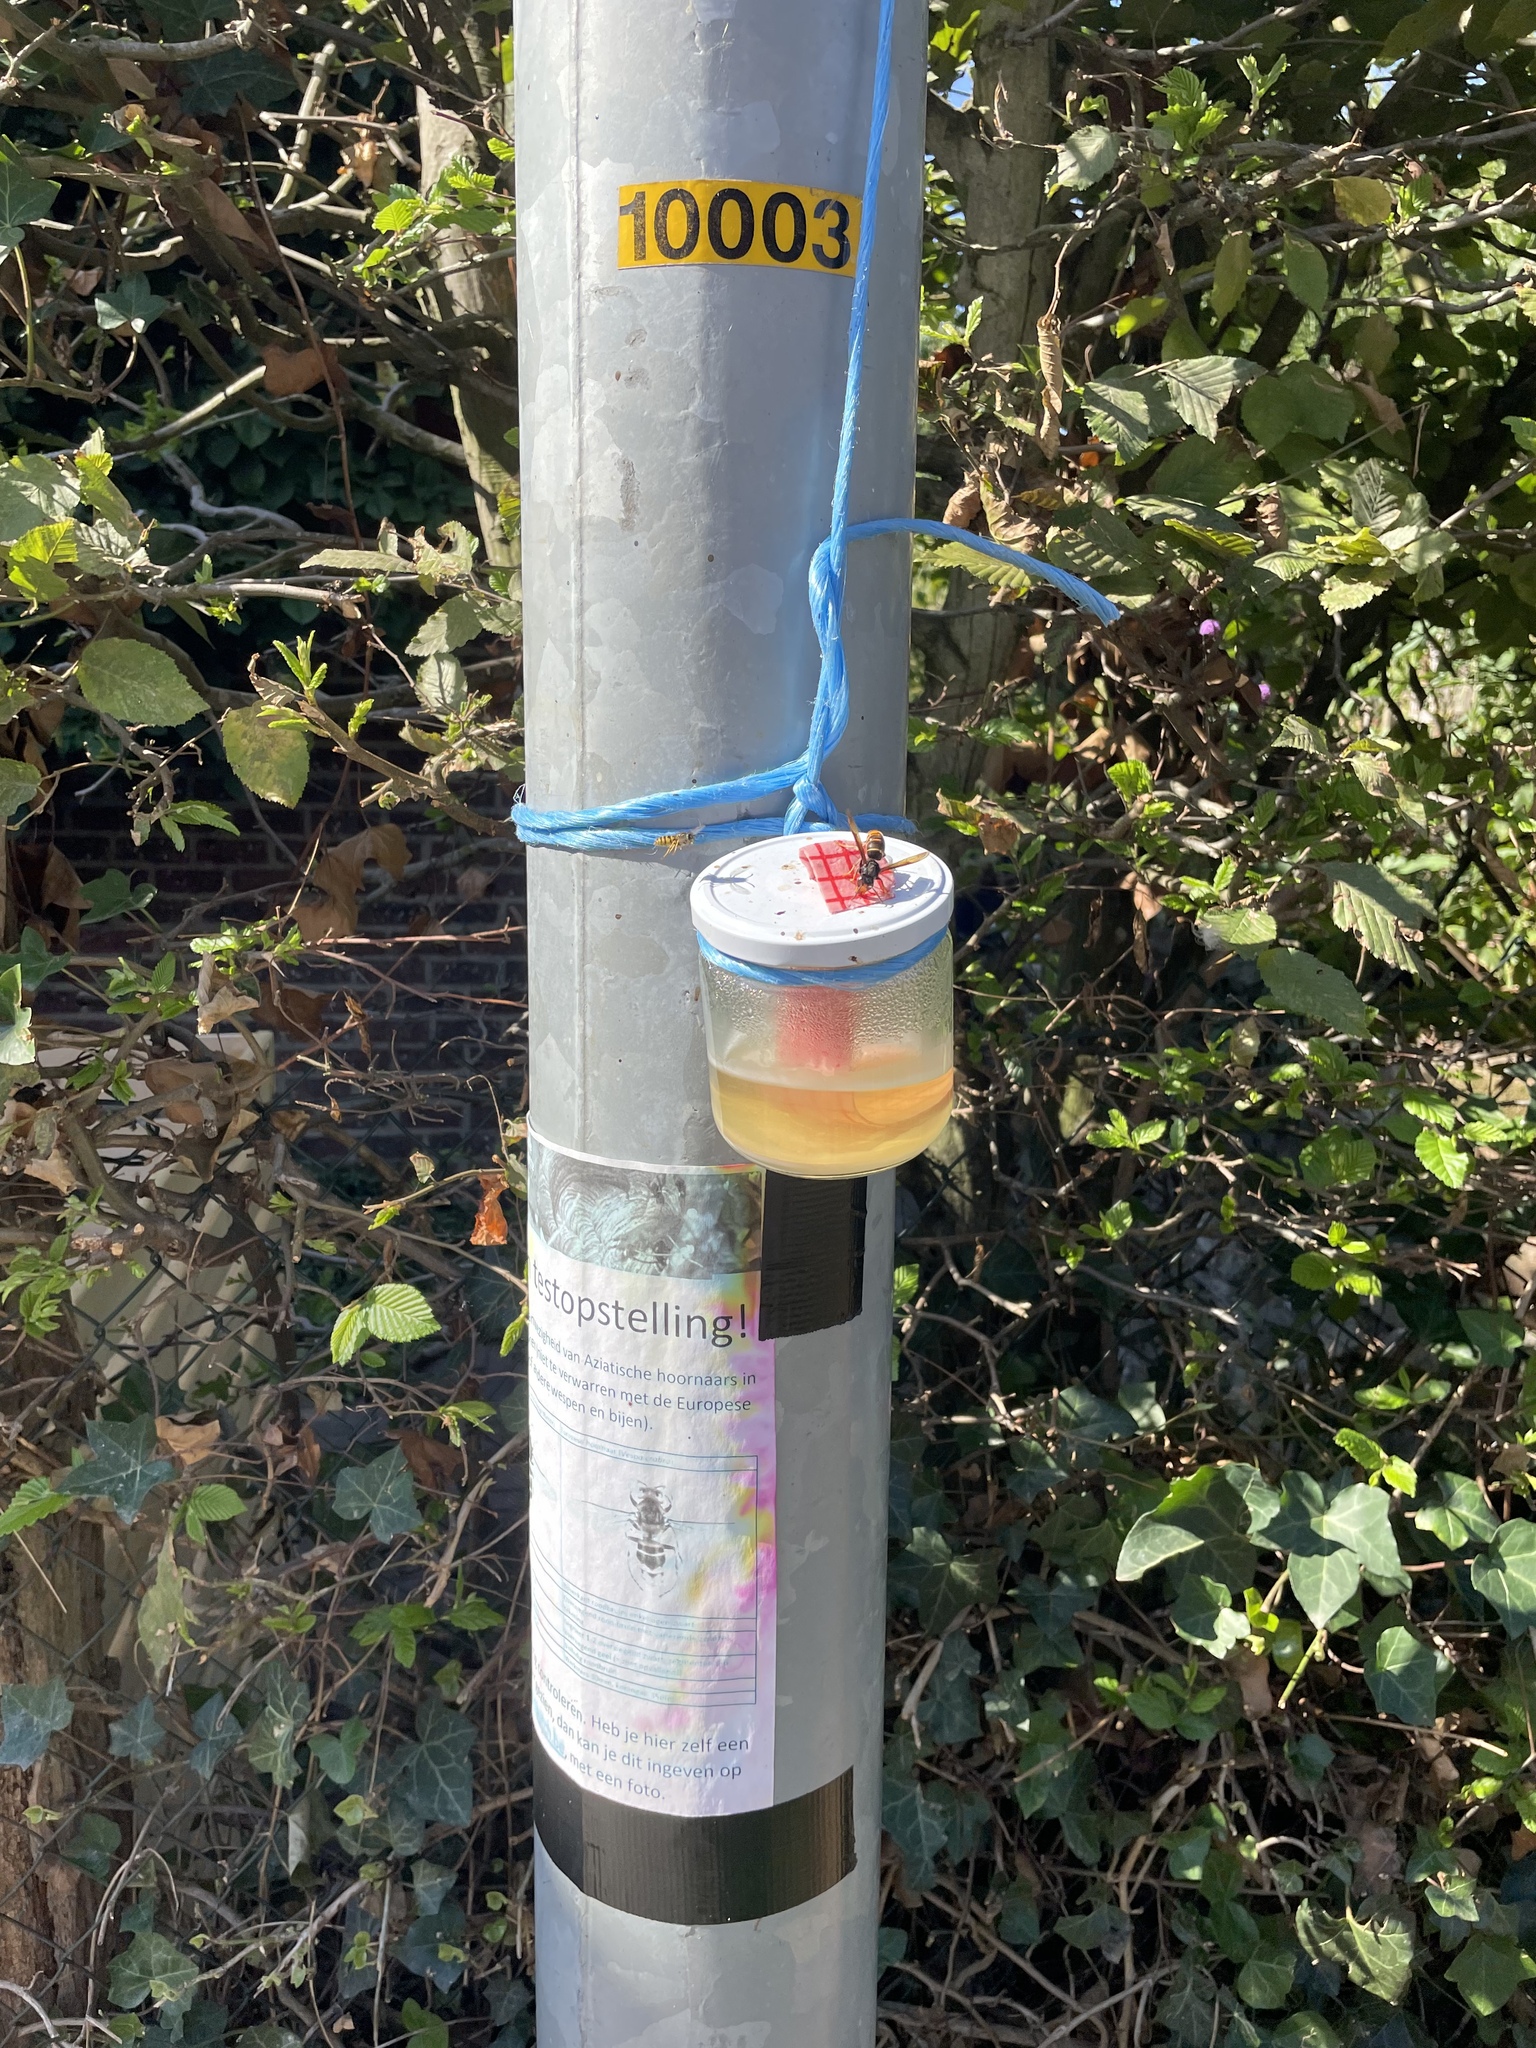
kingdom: Animalia
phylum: Arthropoda
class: Insecta
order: Hymenoptera
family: Vespidae
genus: Vespa
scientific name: Vespa velutina
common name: Asian hornet
